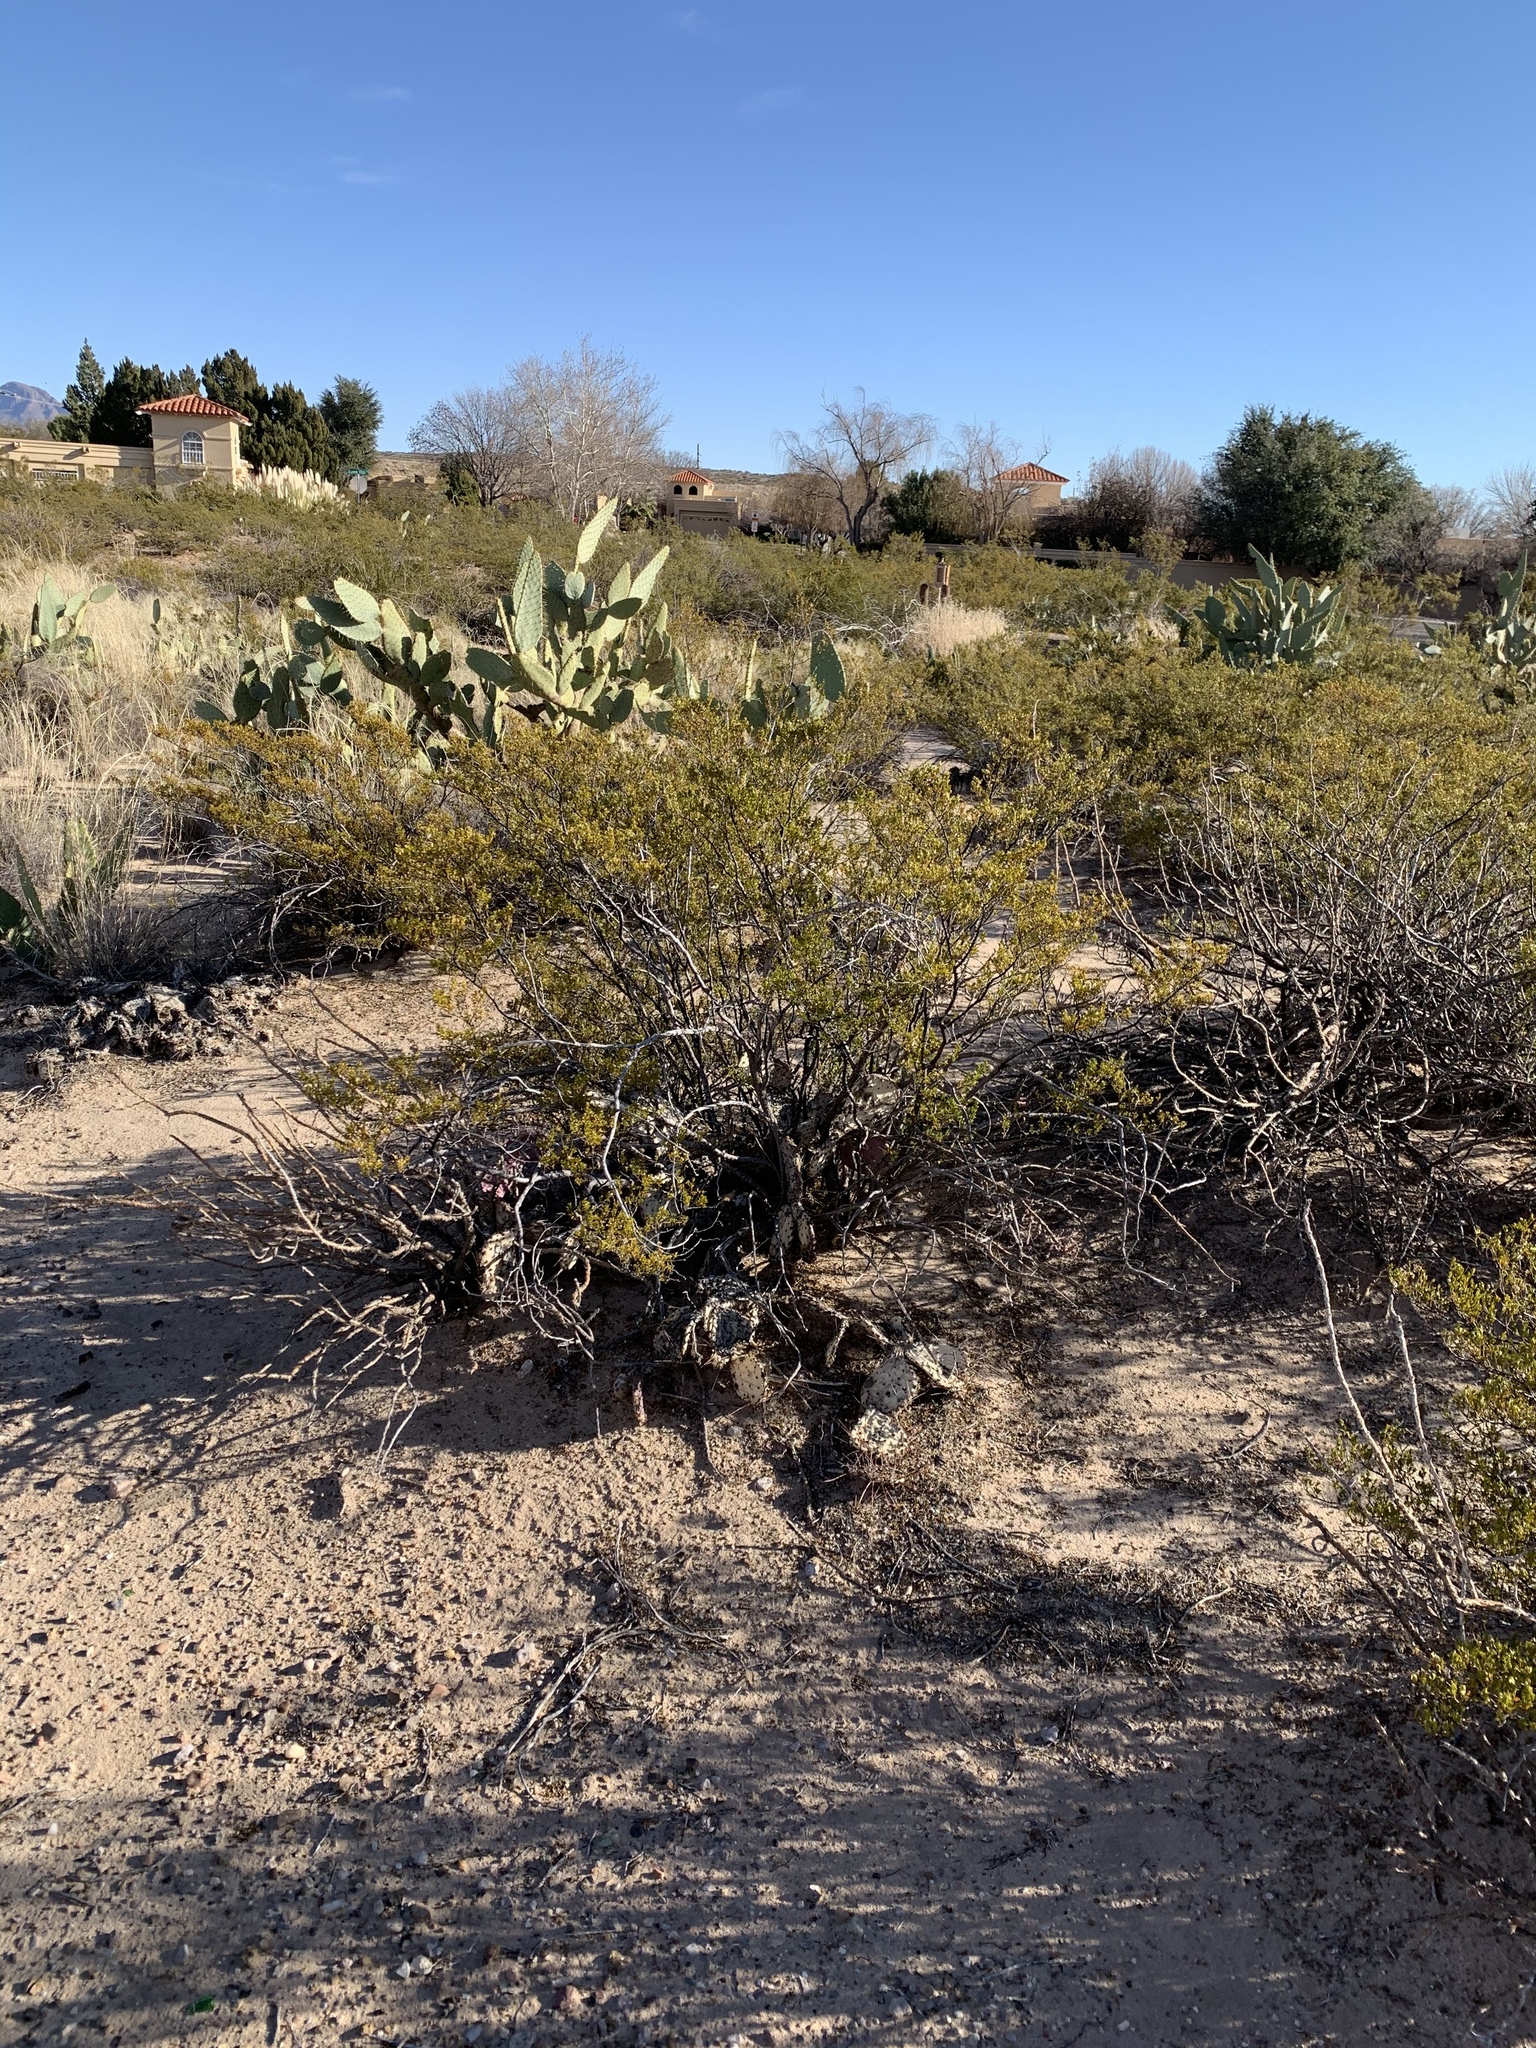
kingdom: Plantae
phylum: Tracheophyta
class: Magnoliopsida
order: Zygophyllales
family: Zygophyllaceae
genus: Larrea
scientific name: Larrea tridentata
